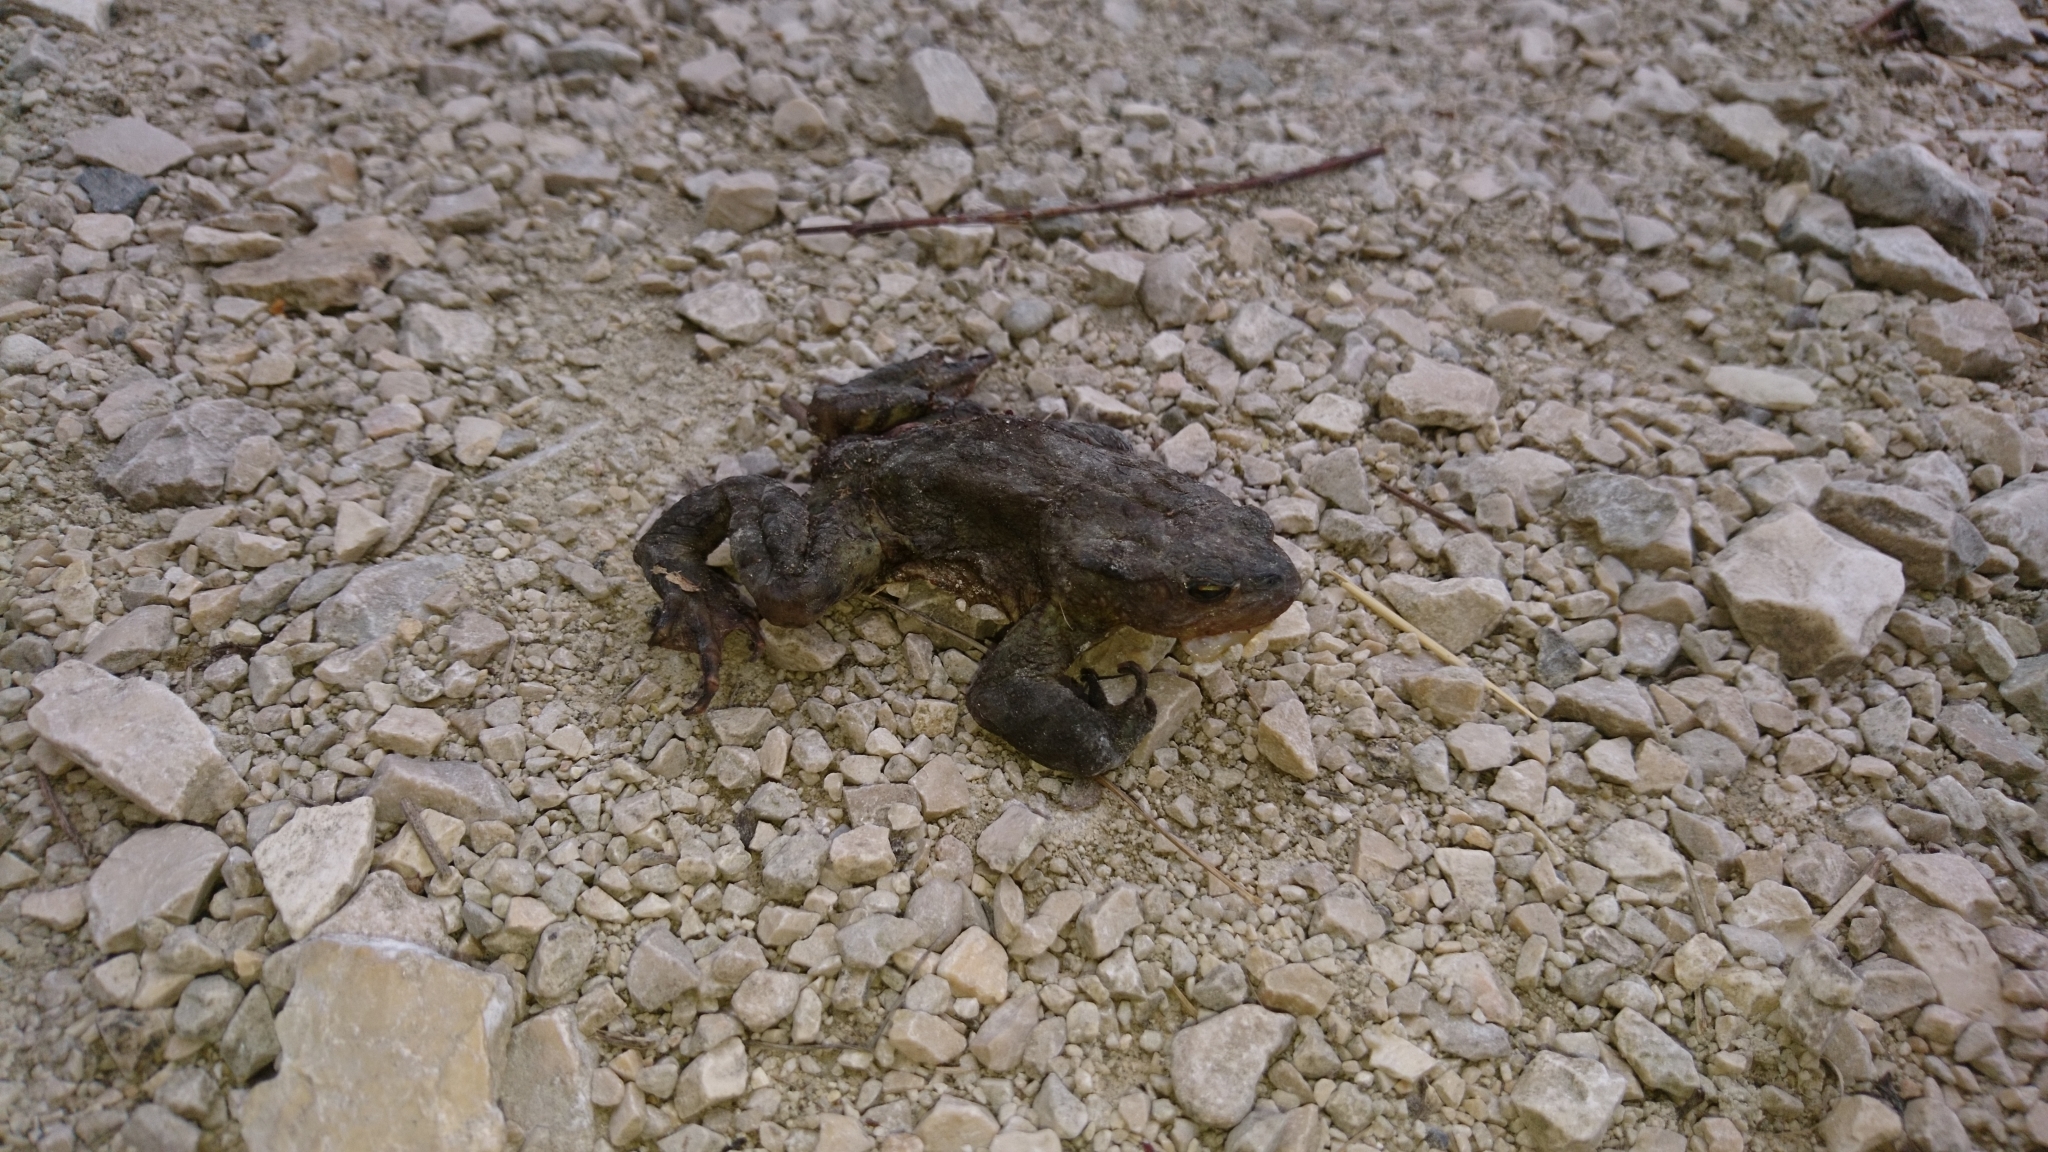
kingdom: Animalia
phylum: Chordata
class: Amphibia
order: Anura
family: Bufonidae
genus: Bufo
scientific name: Bufo bufo
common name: Common toad
